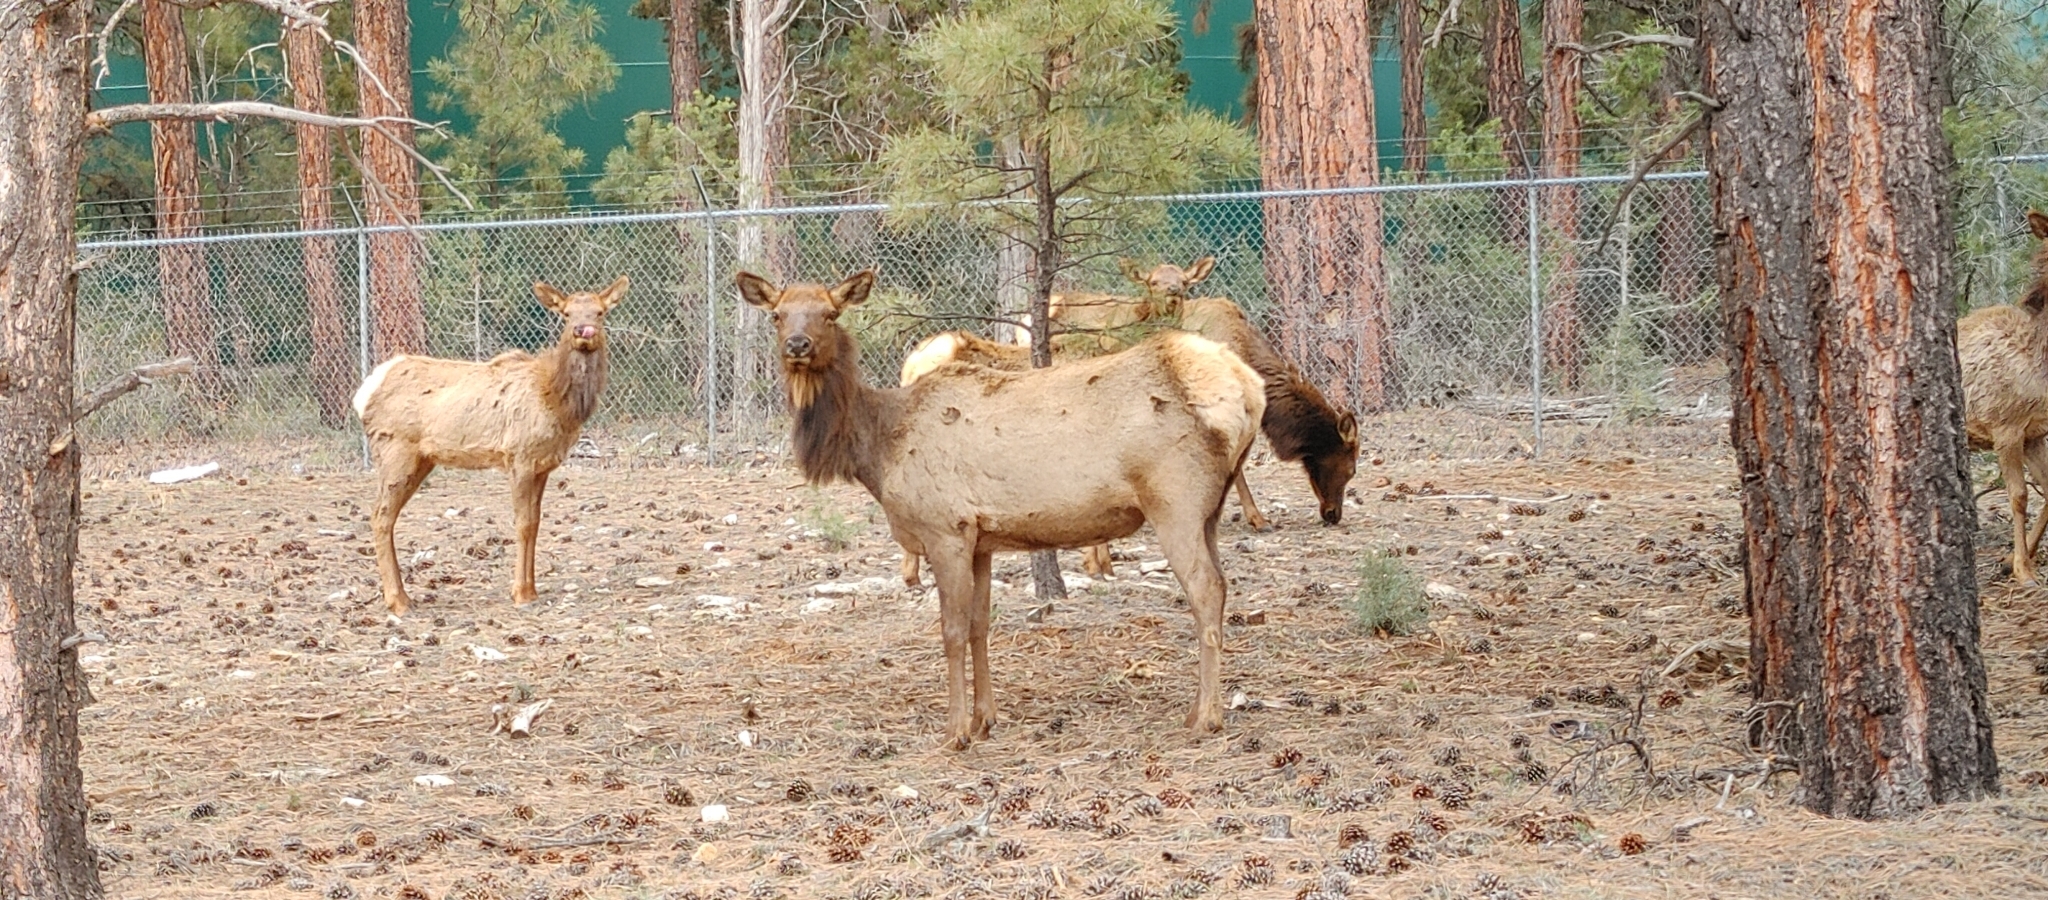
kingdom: Animalia
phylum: Chordata
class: Mammalia
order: Artiodactyla
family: Cervidae
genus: Cervus
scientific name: Cervus elaphus
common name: Red deer
